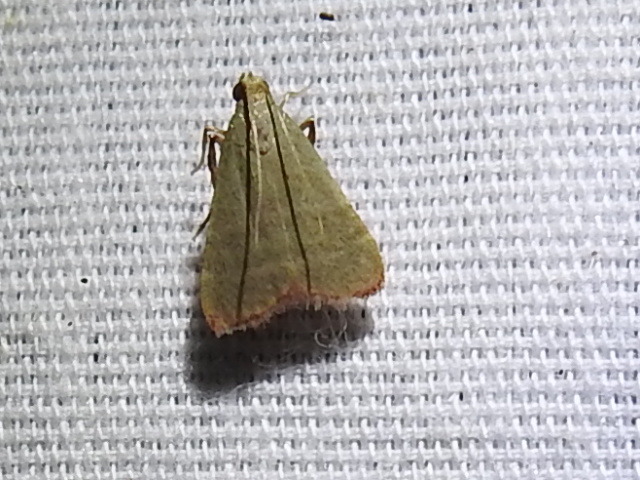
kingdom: Animalia
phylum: Arthropoda
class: Insecta
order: Lepidoptera
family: Pyralidae
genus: Arta
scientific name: Arta olivalis
